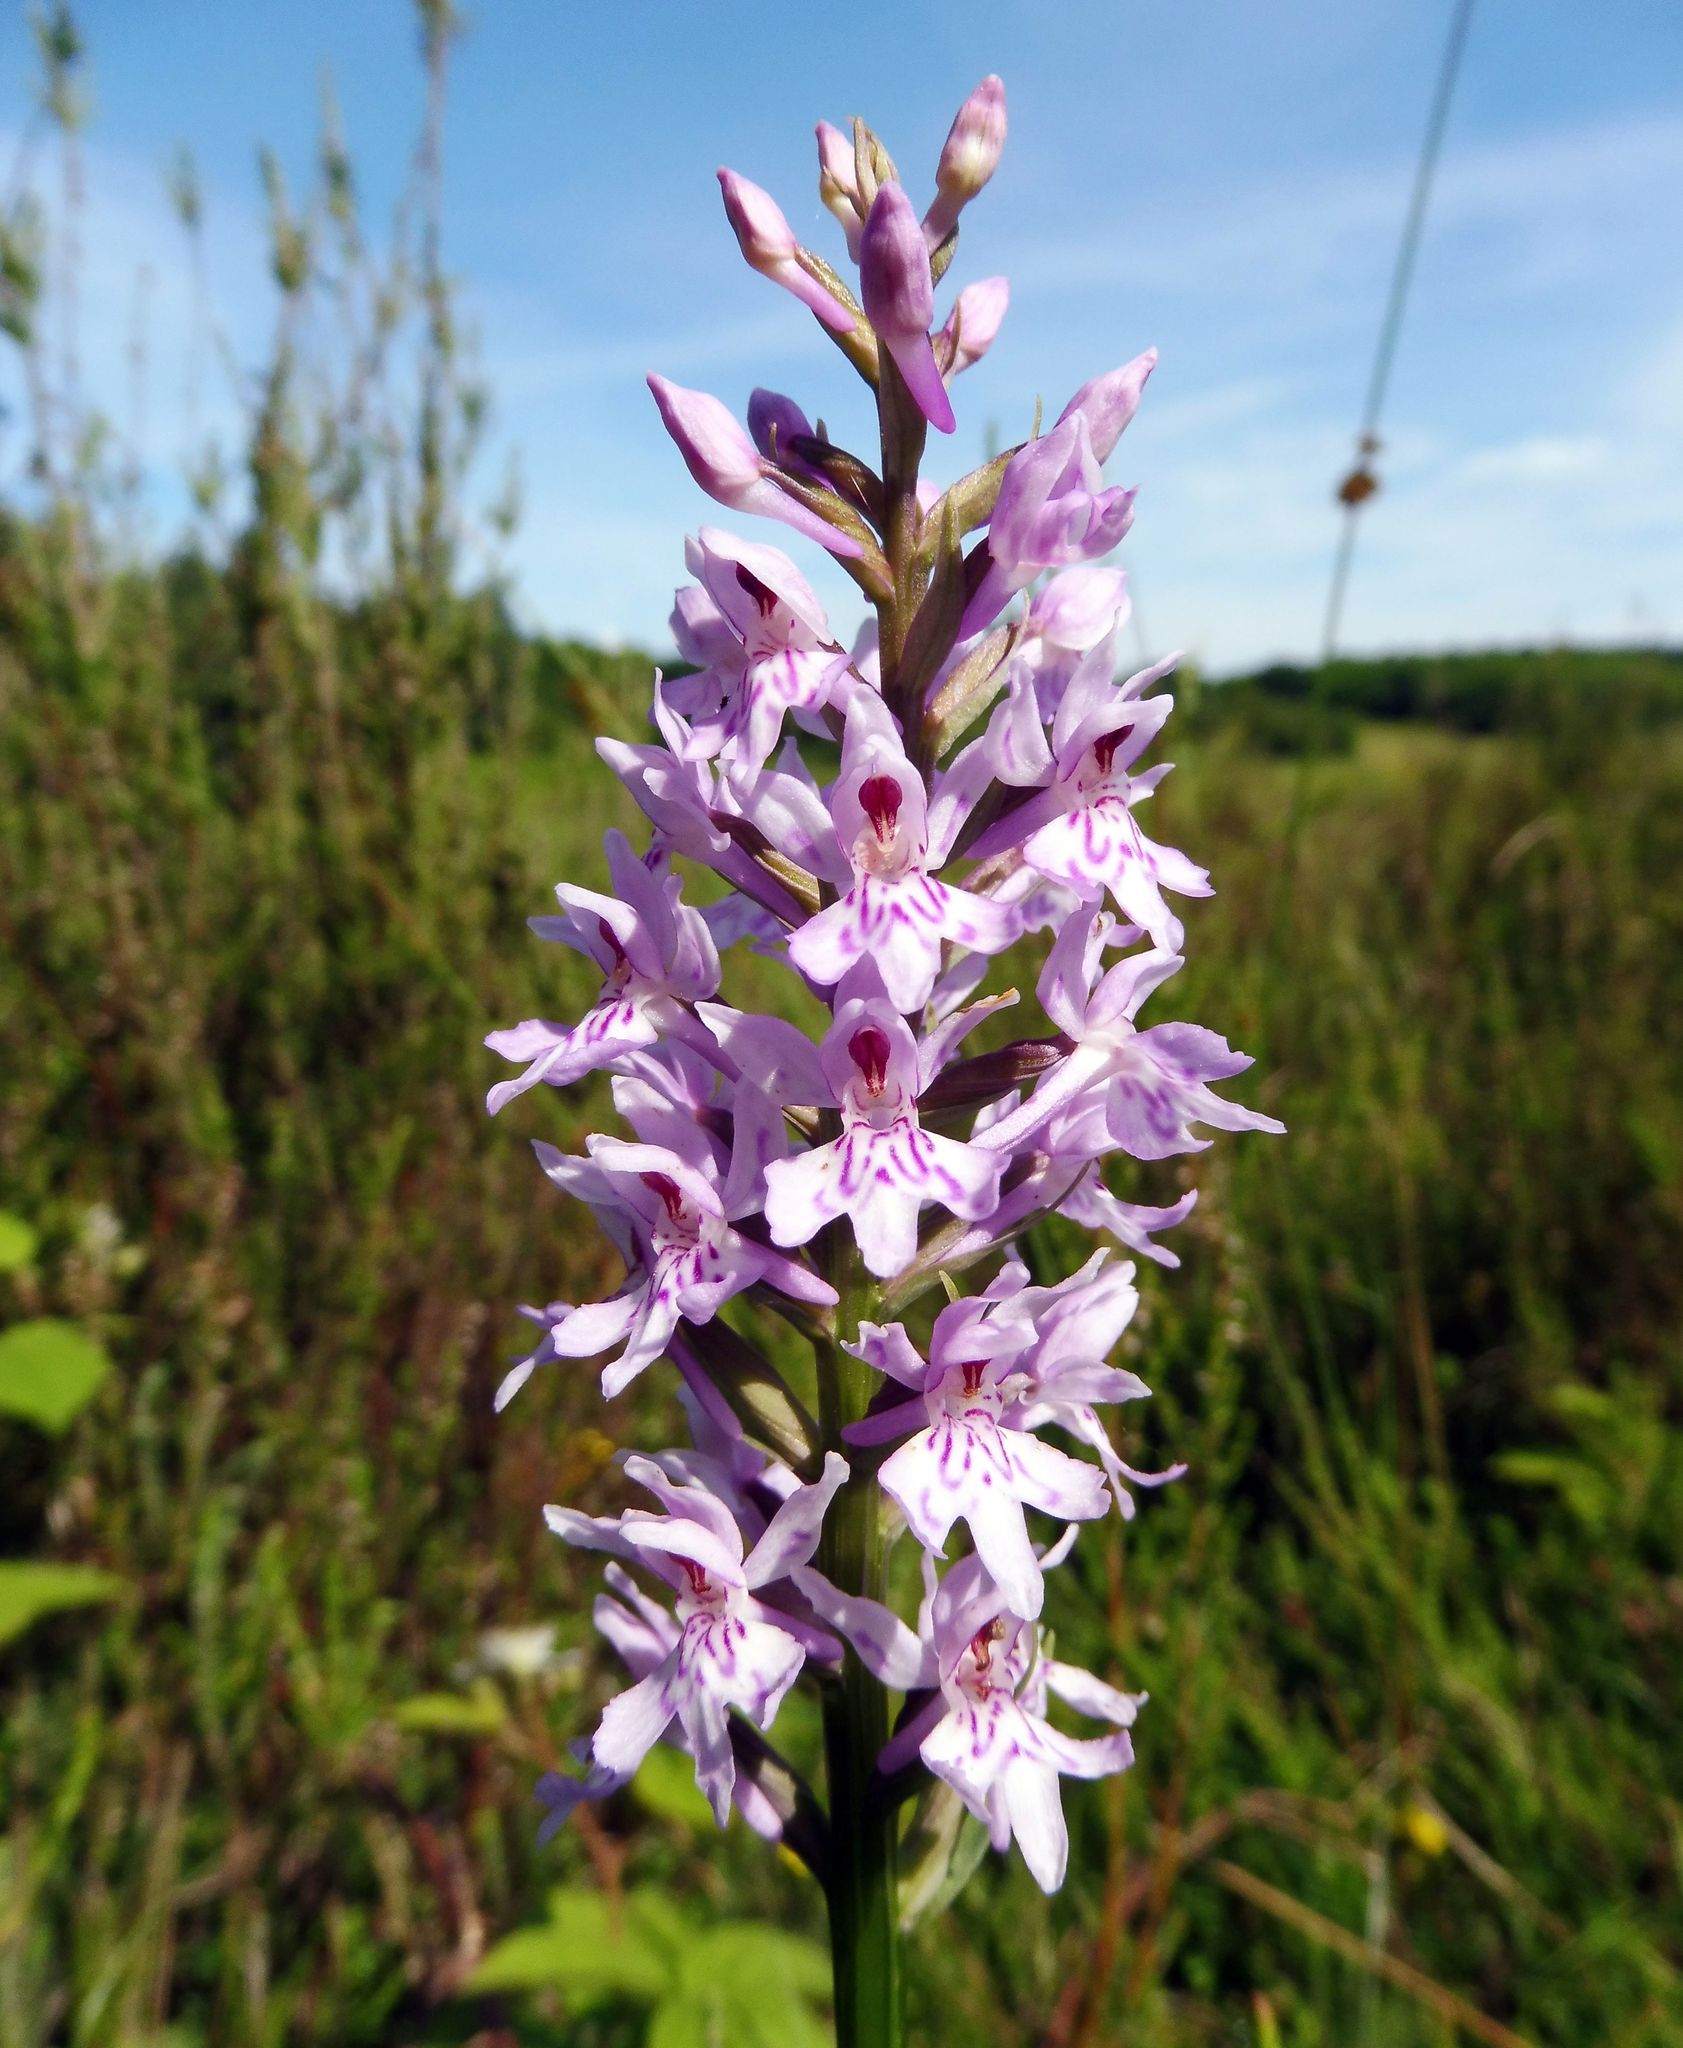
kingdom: Plantae
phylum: Tracheophyta
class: Liliopsida
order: Asparagales
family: Orchidaceae
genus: Dactylorhiza
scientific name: Dactylorhiza maculata
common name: Heath spotted-orchid
